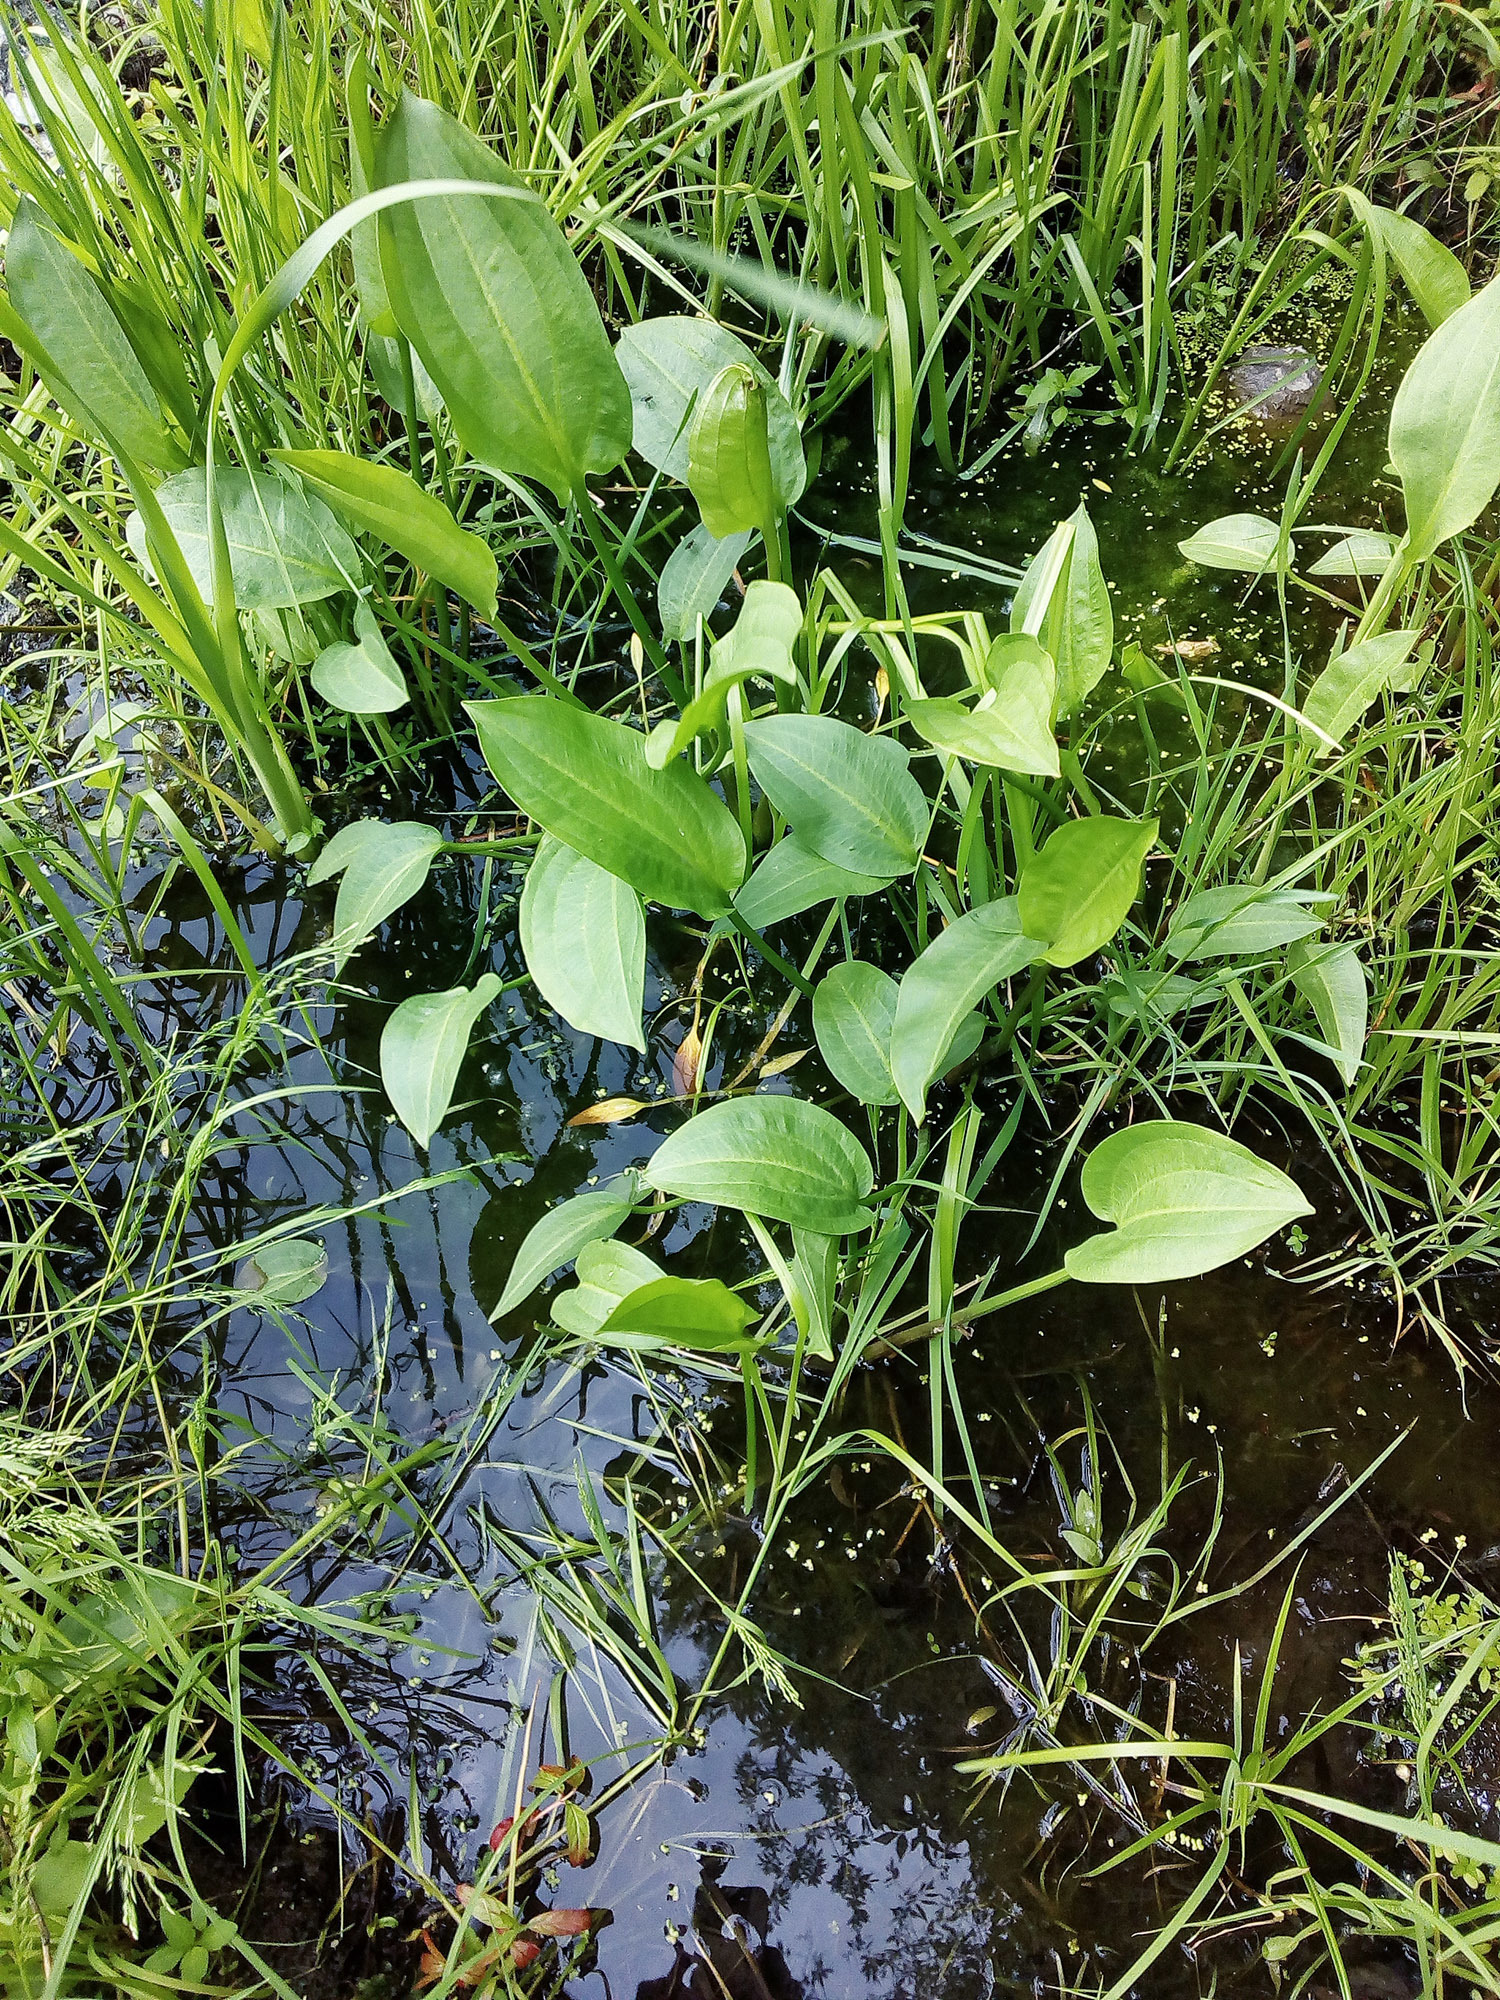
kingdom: Plantae
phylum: Tracheophyta
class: Liliopsida
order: Alismatales
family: Alismataceae
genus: Alisma
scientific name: Alisma plantago-aquatica
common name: Water-plantain
